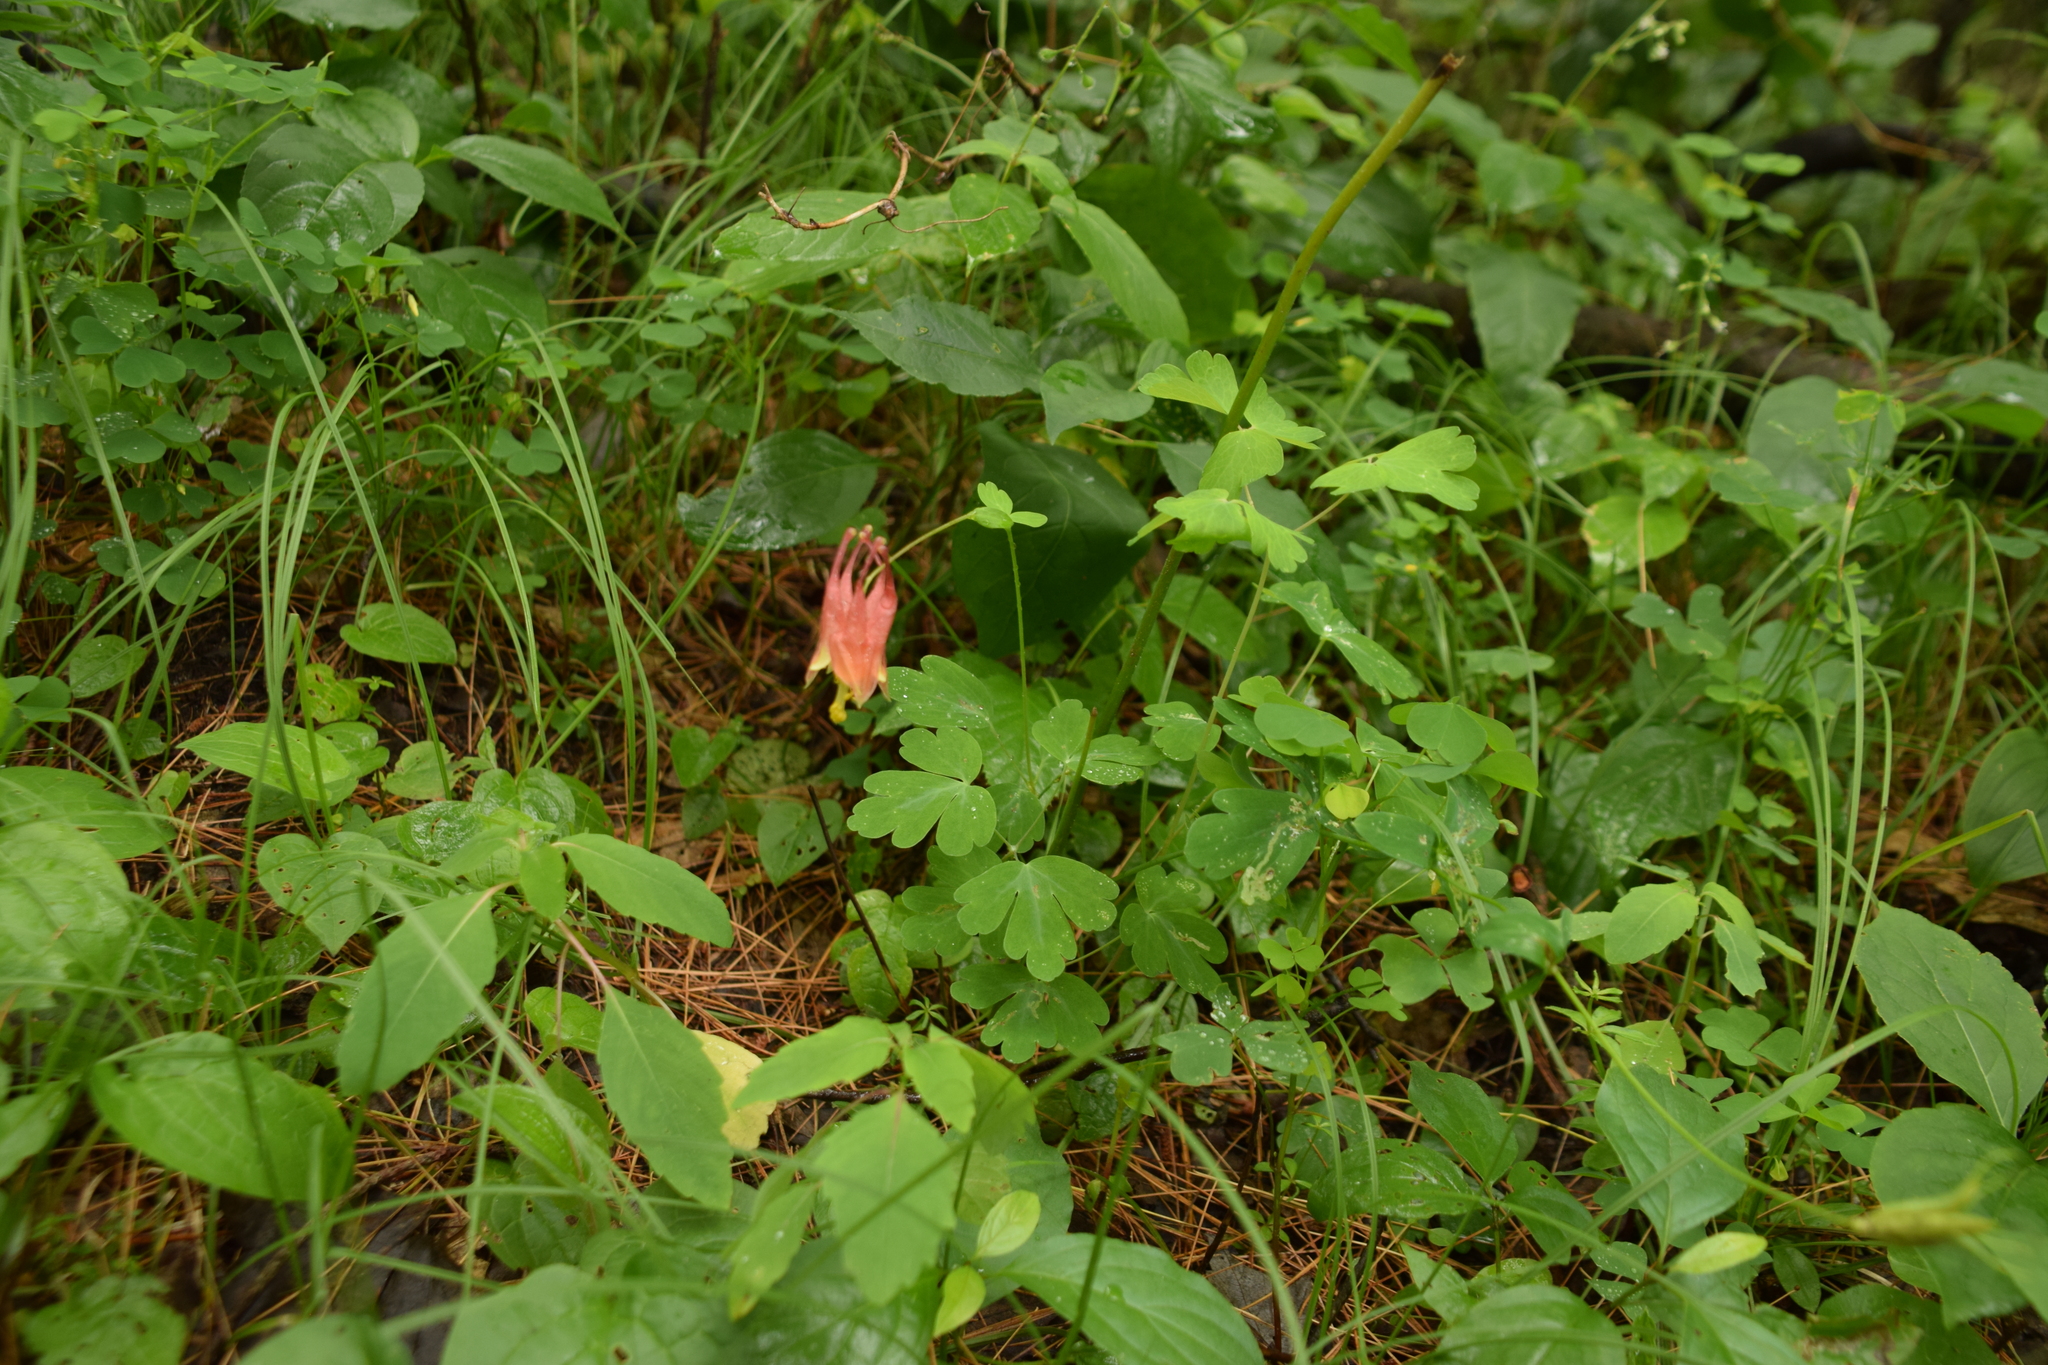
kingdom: Plantae
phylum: Tracheophyta
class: Magnoliopsida
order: Ranunculales
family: Ranunculaceae
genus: Aquilegia
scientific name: Aquilegia canadensis
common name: American columbine
